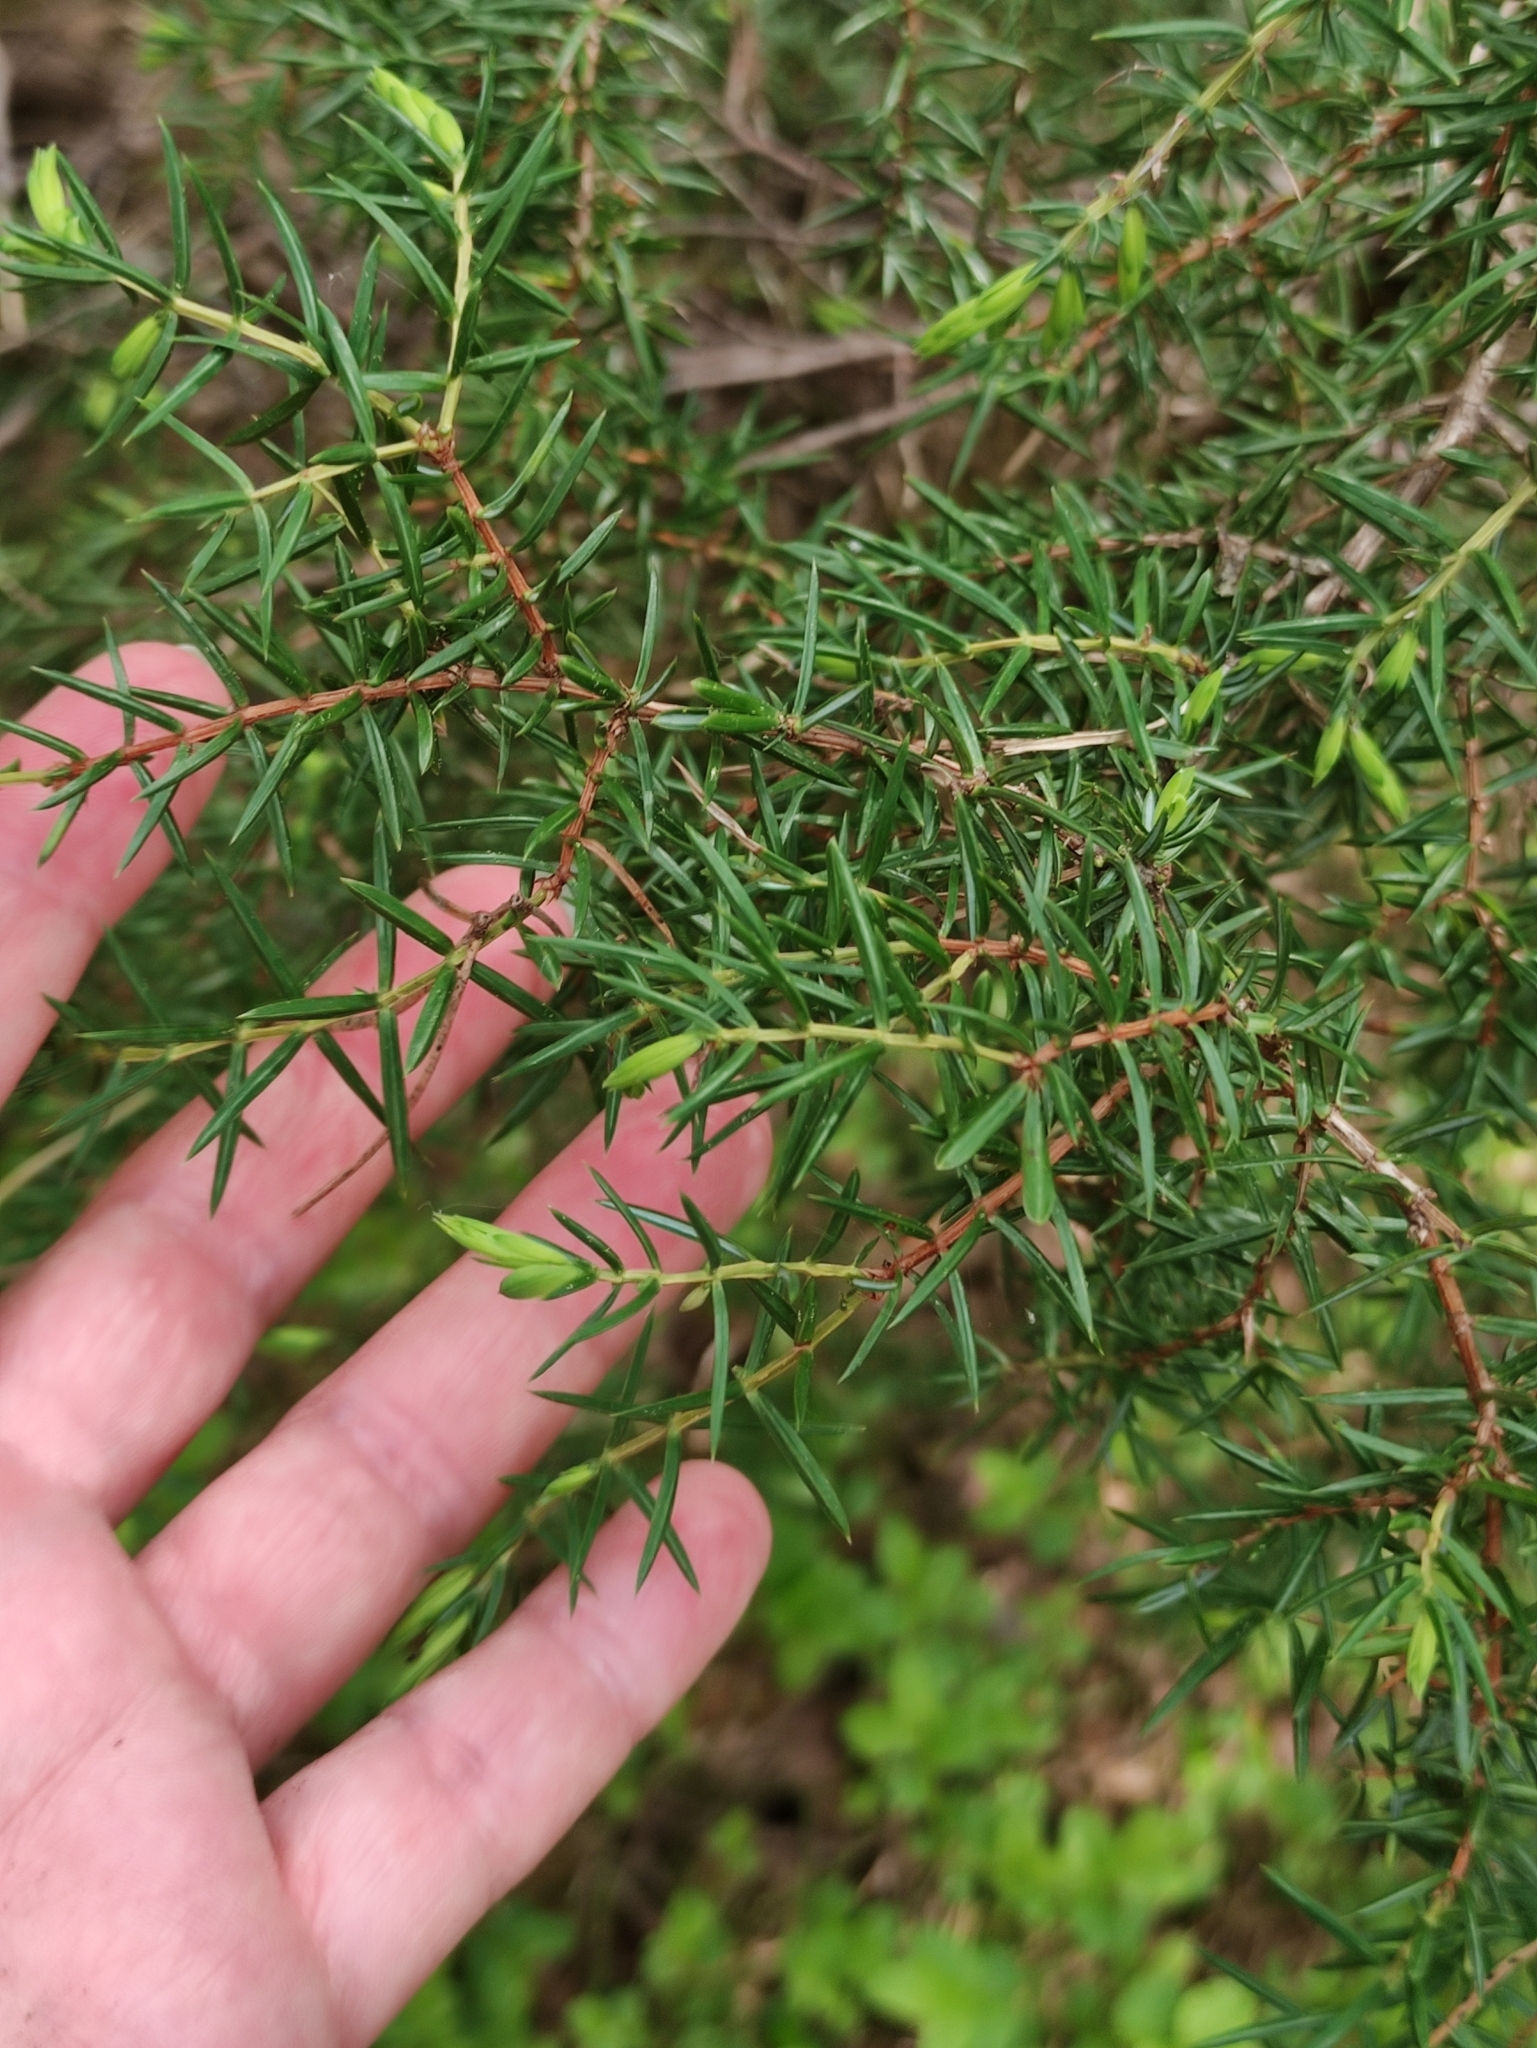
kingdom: Plantae
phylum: Tracheophyta
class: Pinopsida
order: Pinales
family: Cupressaceae
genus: Juniperus
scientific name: Juniperus communis
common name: Common juniper
